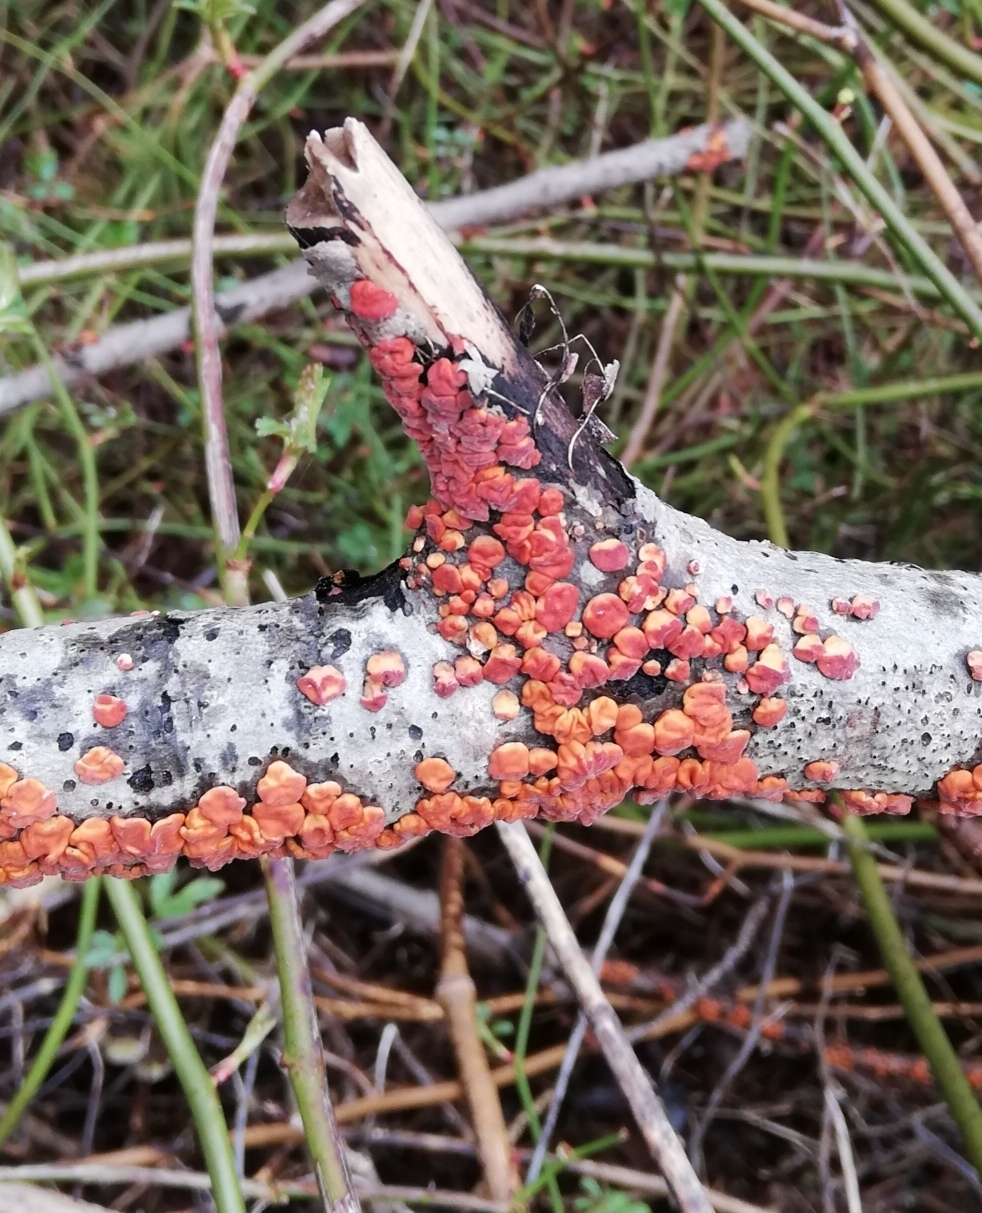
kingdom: Fungi
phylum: Basidiomycota
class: Agaricomycetes
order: Russulales
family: Peniophoraceae
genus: Peniophora
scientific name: Peniophora rufa
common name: Red tree brain fungus
